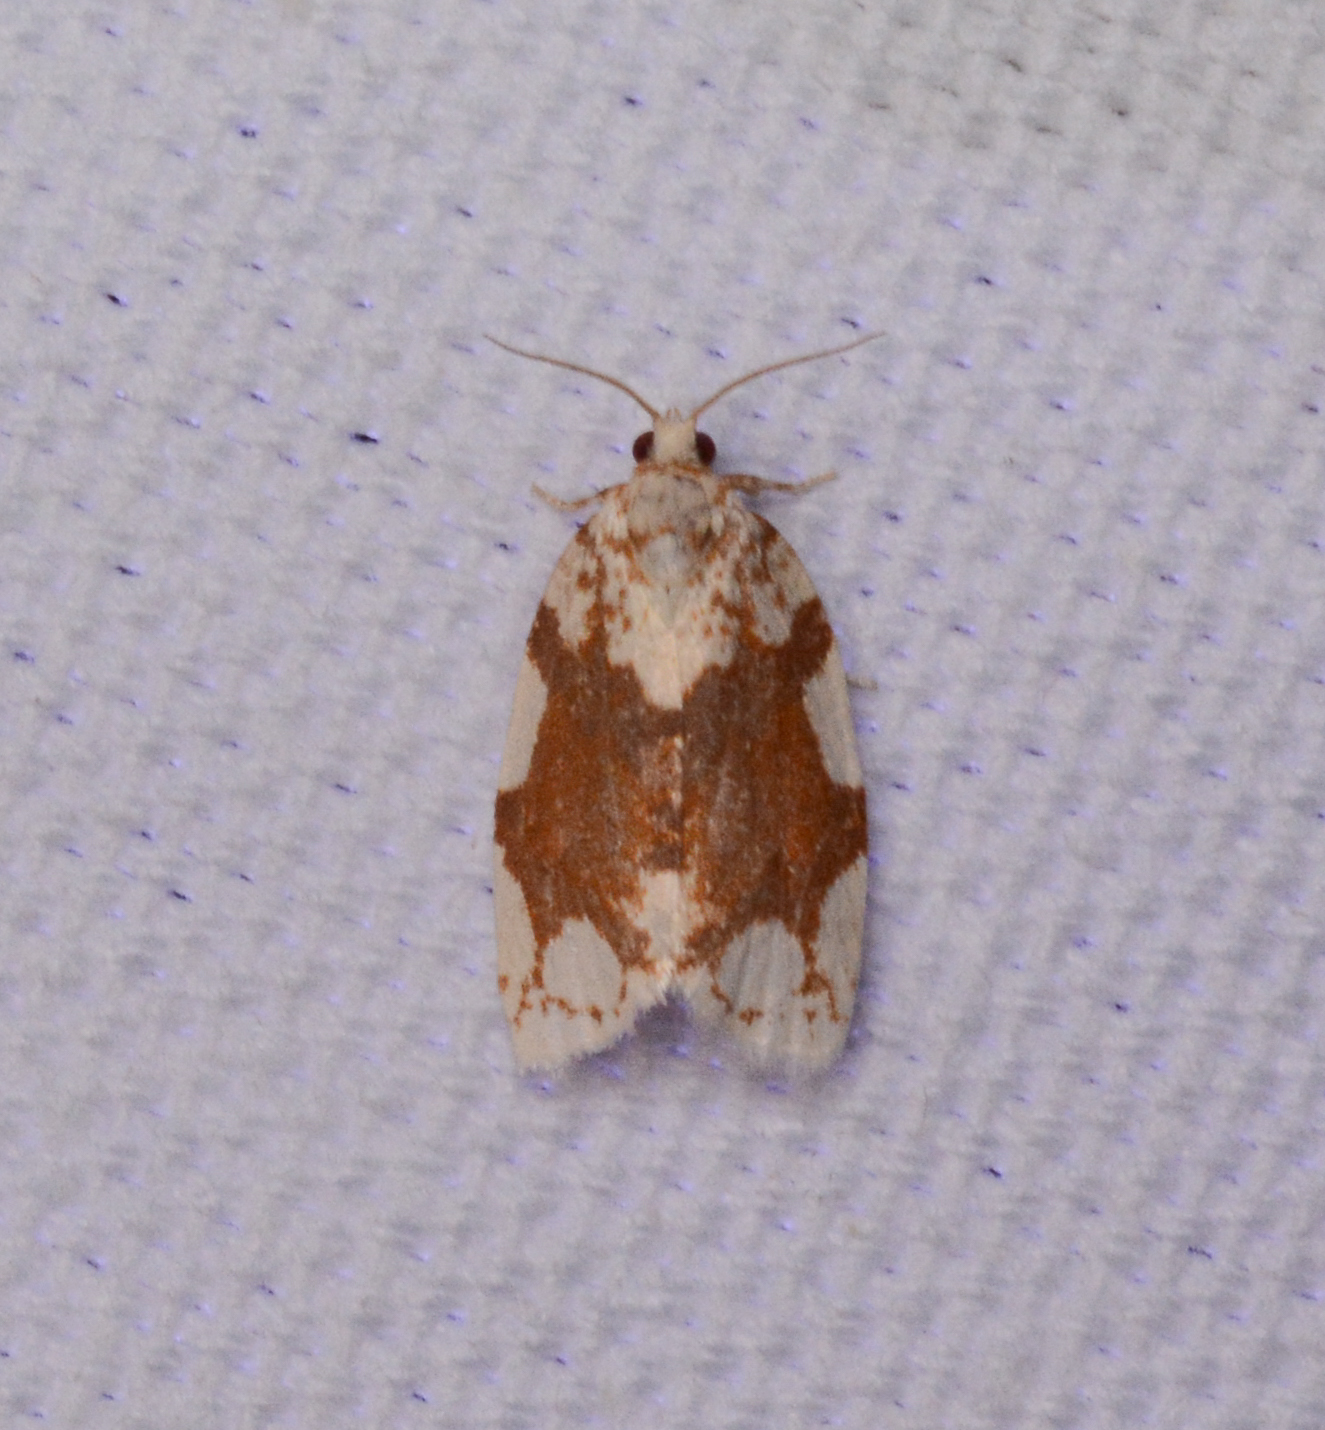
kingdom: Animalia
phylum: Arthropoda
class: Insecta
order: Lepidoptera
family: Tortricidae
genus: Argyrotaenia
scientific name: Argyrotaenia alisellana
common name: White-spotted leafroller moth
